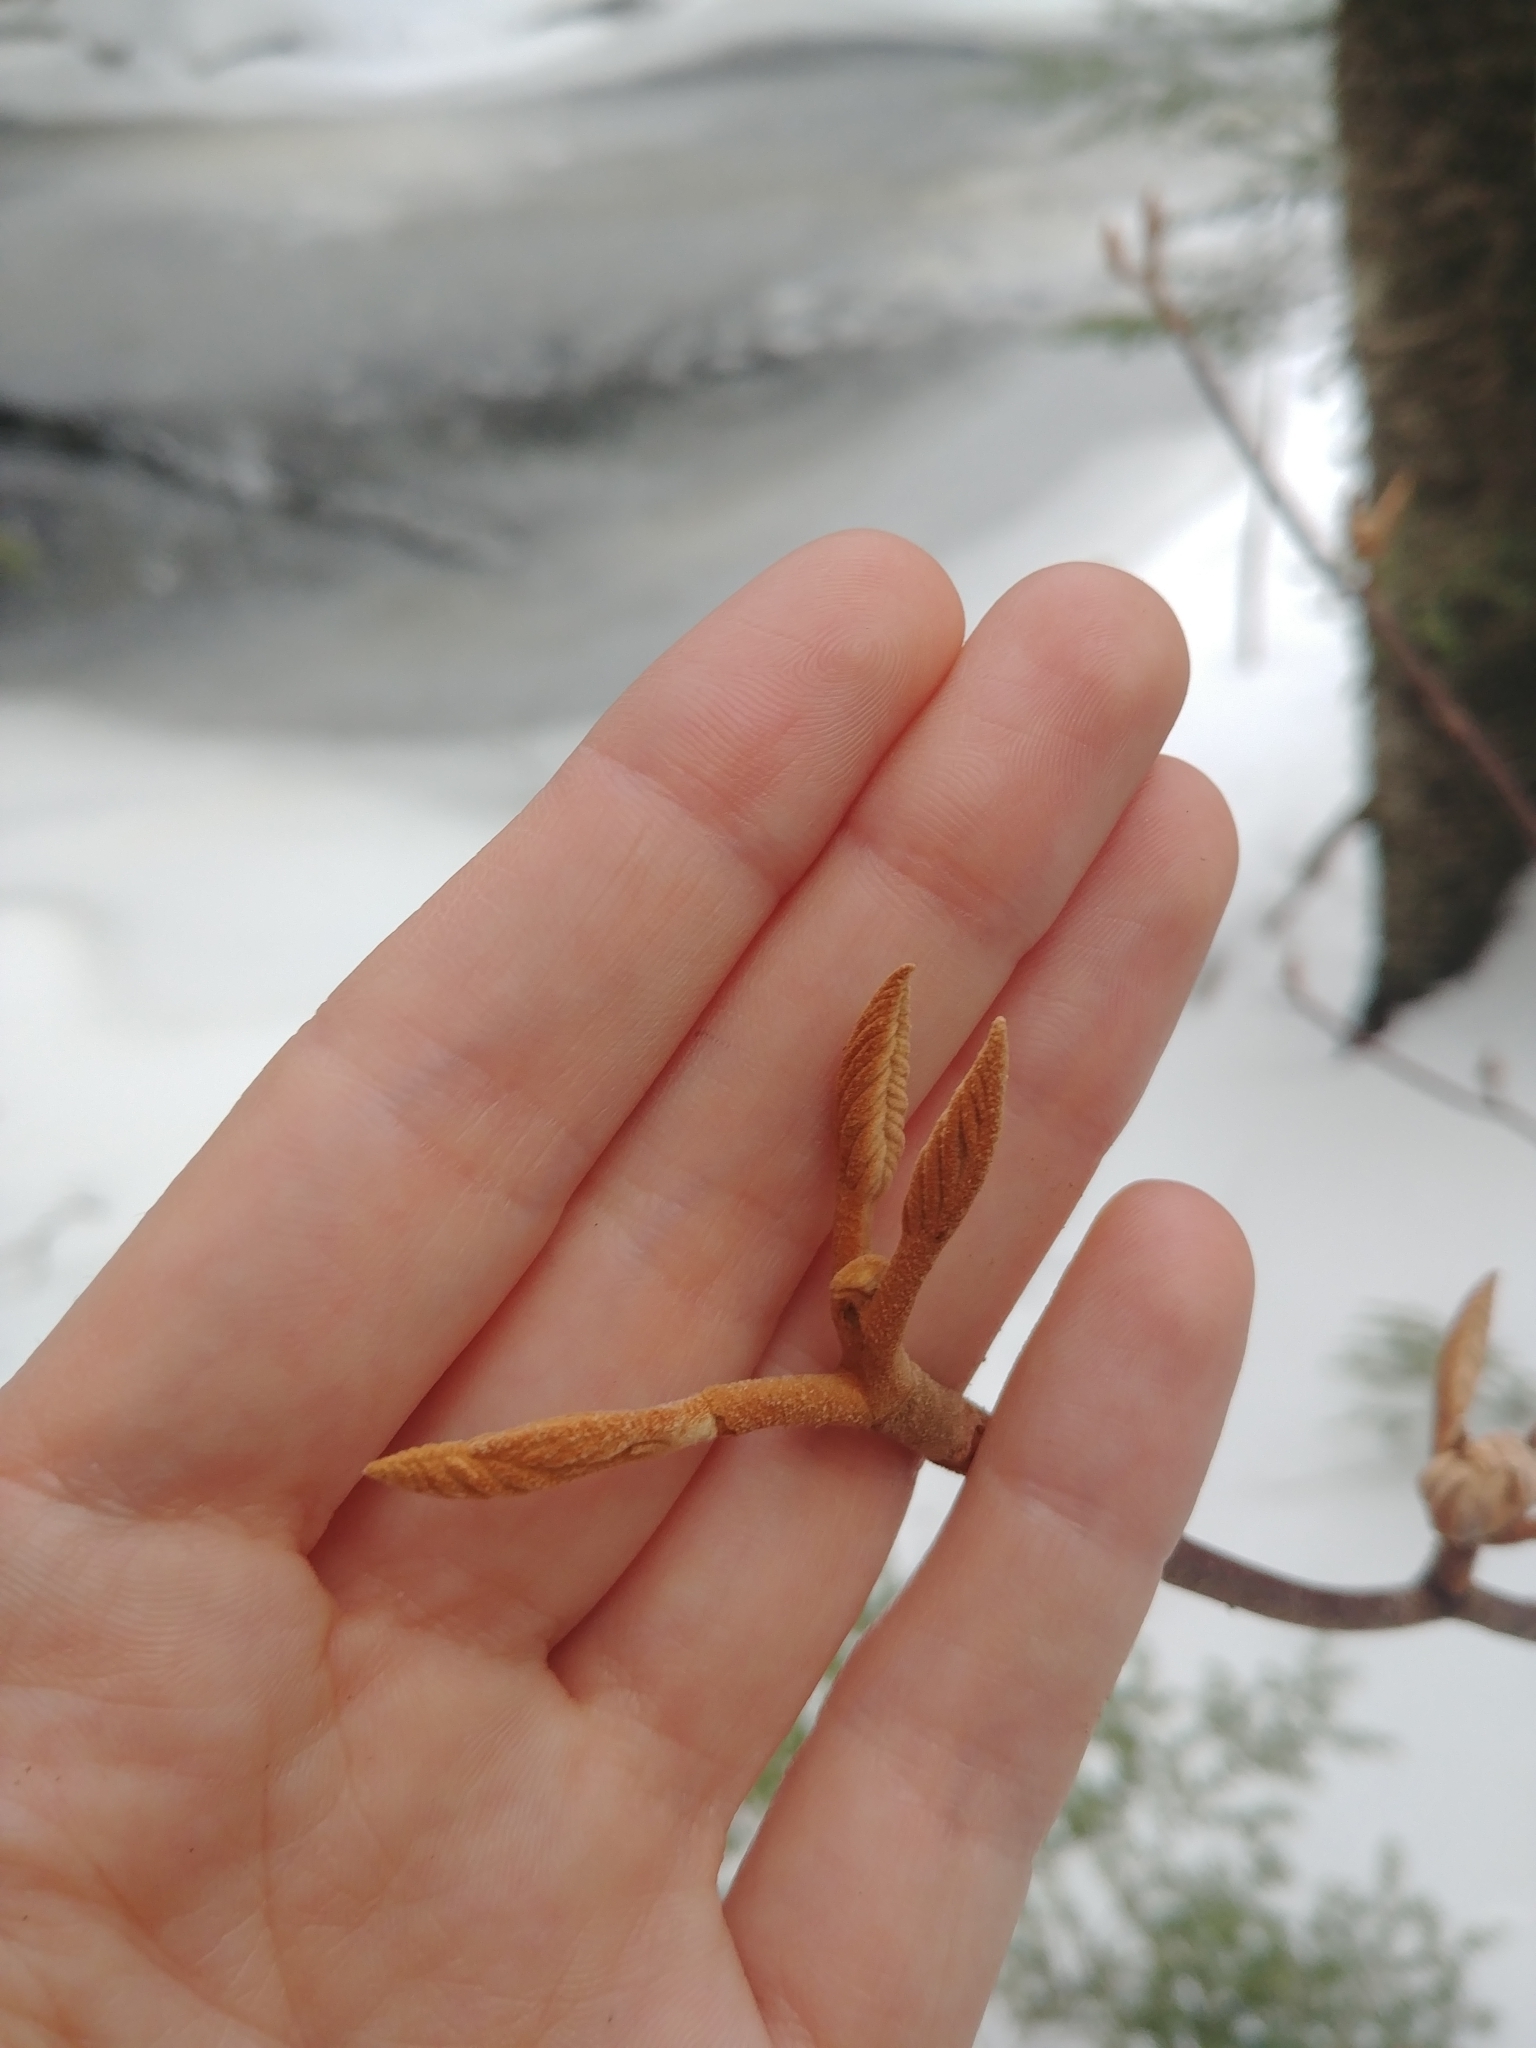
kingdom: Plantae
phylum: Tracheophyta
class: Magnoliopsida
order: Dipsacales
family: Viburnaceae
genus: Viburnum
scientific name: Viburnum lantanoides
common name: Hobblebush
